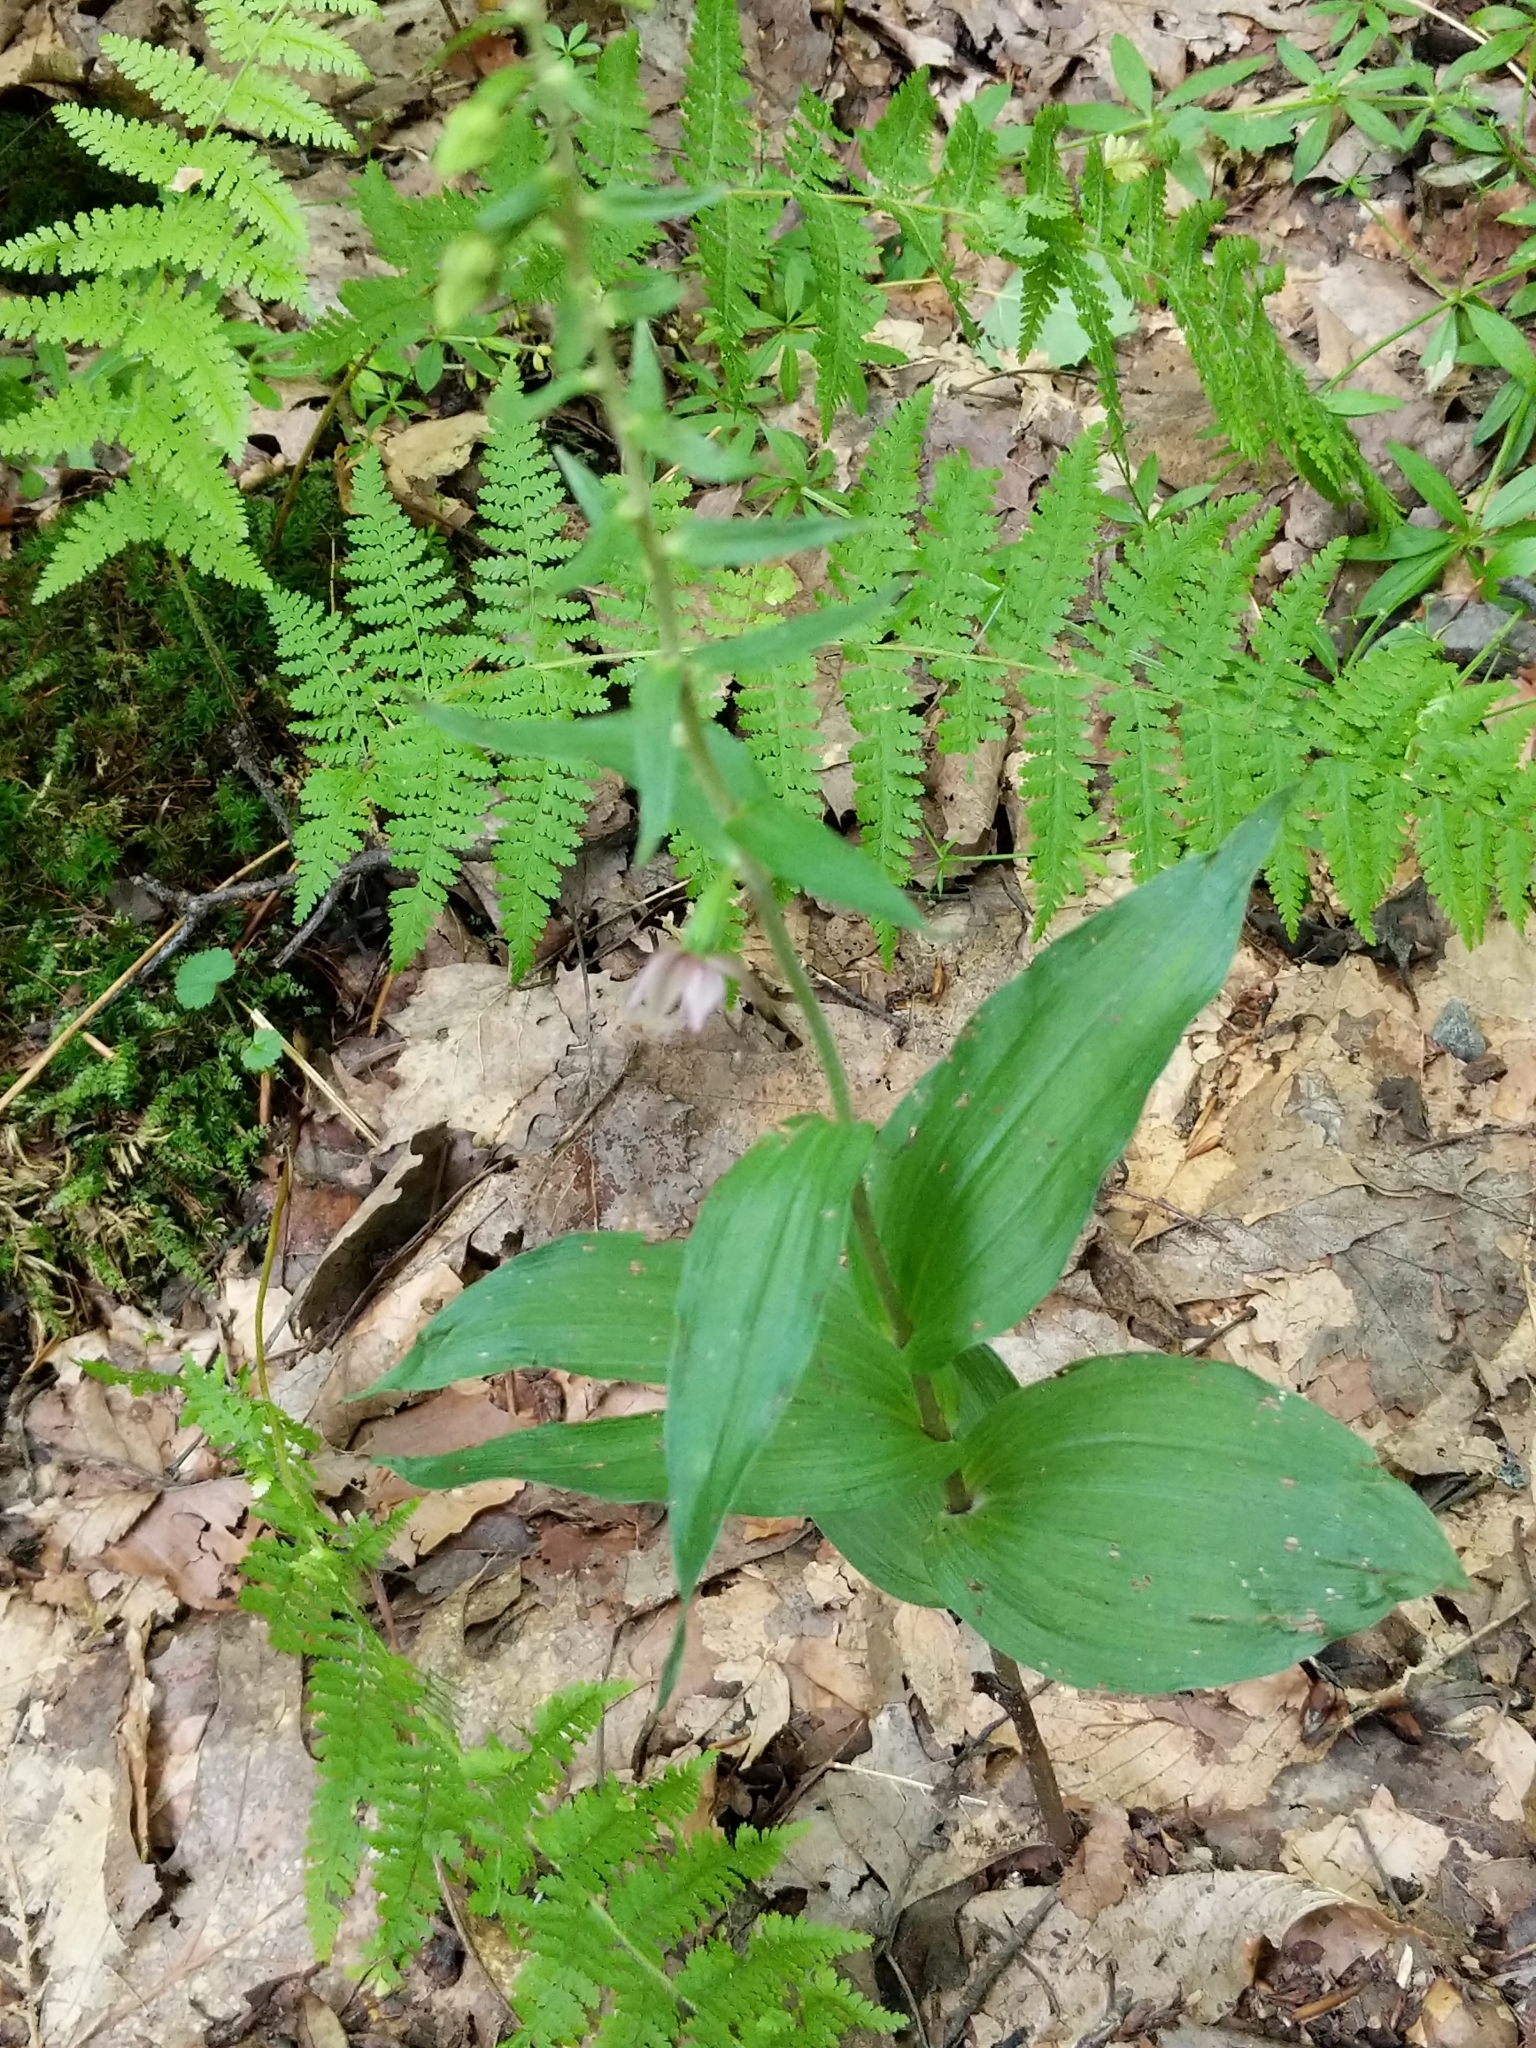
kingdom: Plantae
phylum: Tracheophyta
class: Liliopsida
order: Asparagales
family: Orchidaceae
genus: Epipactis
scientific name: Epipactis helleborine
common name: Broad-leaved helleborine
